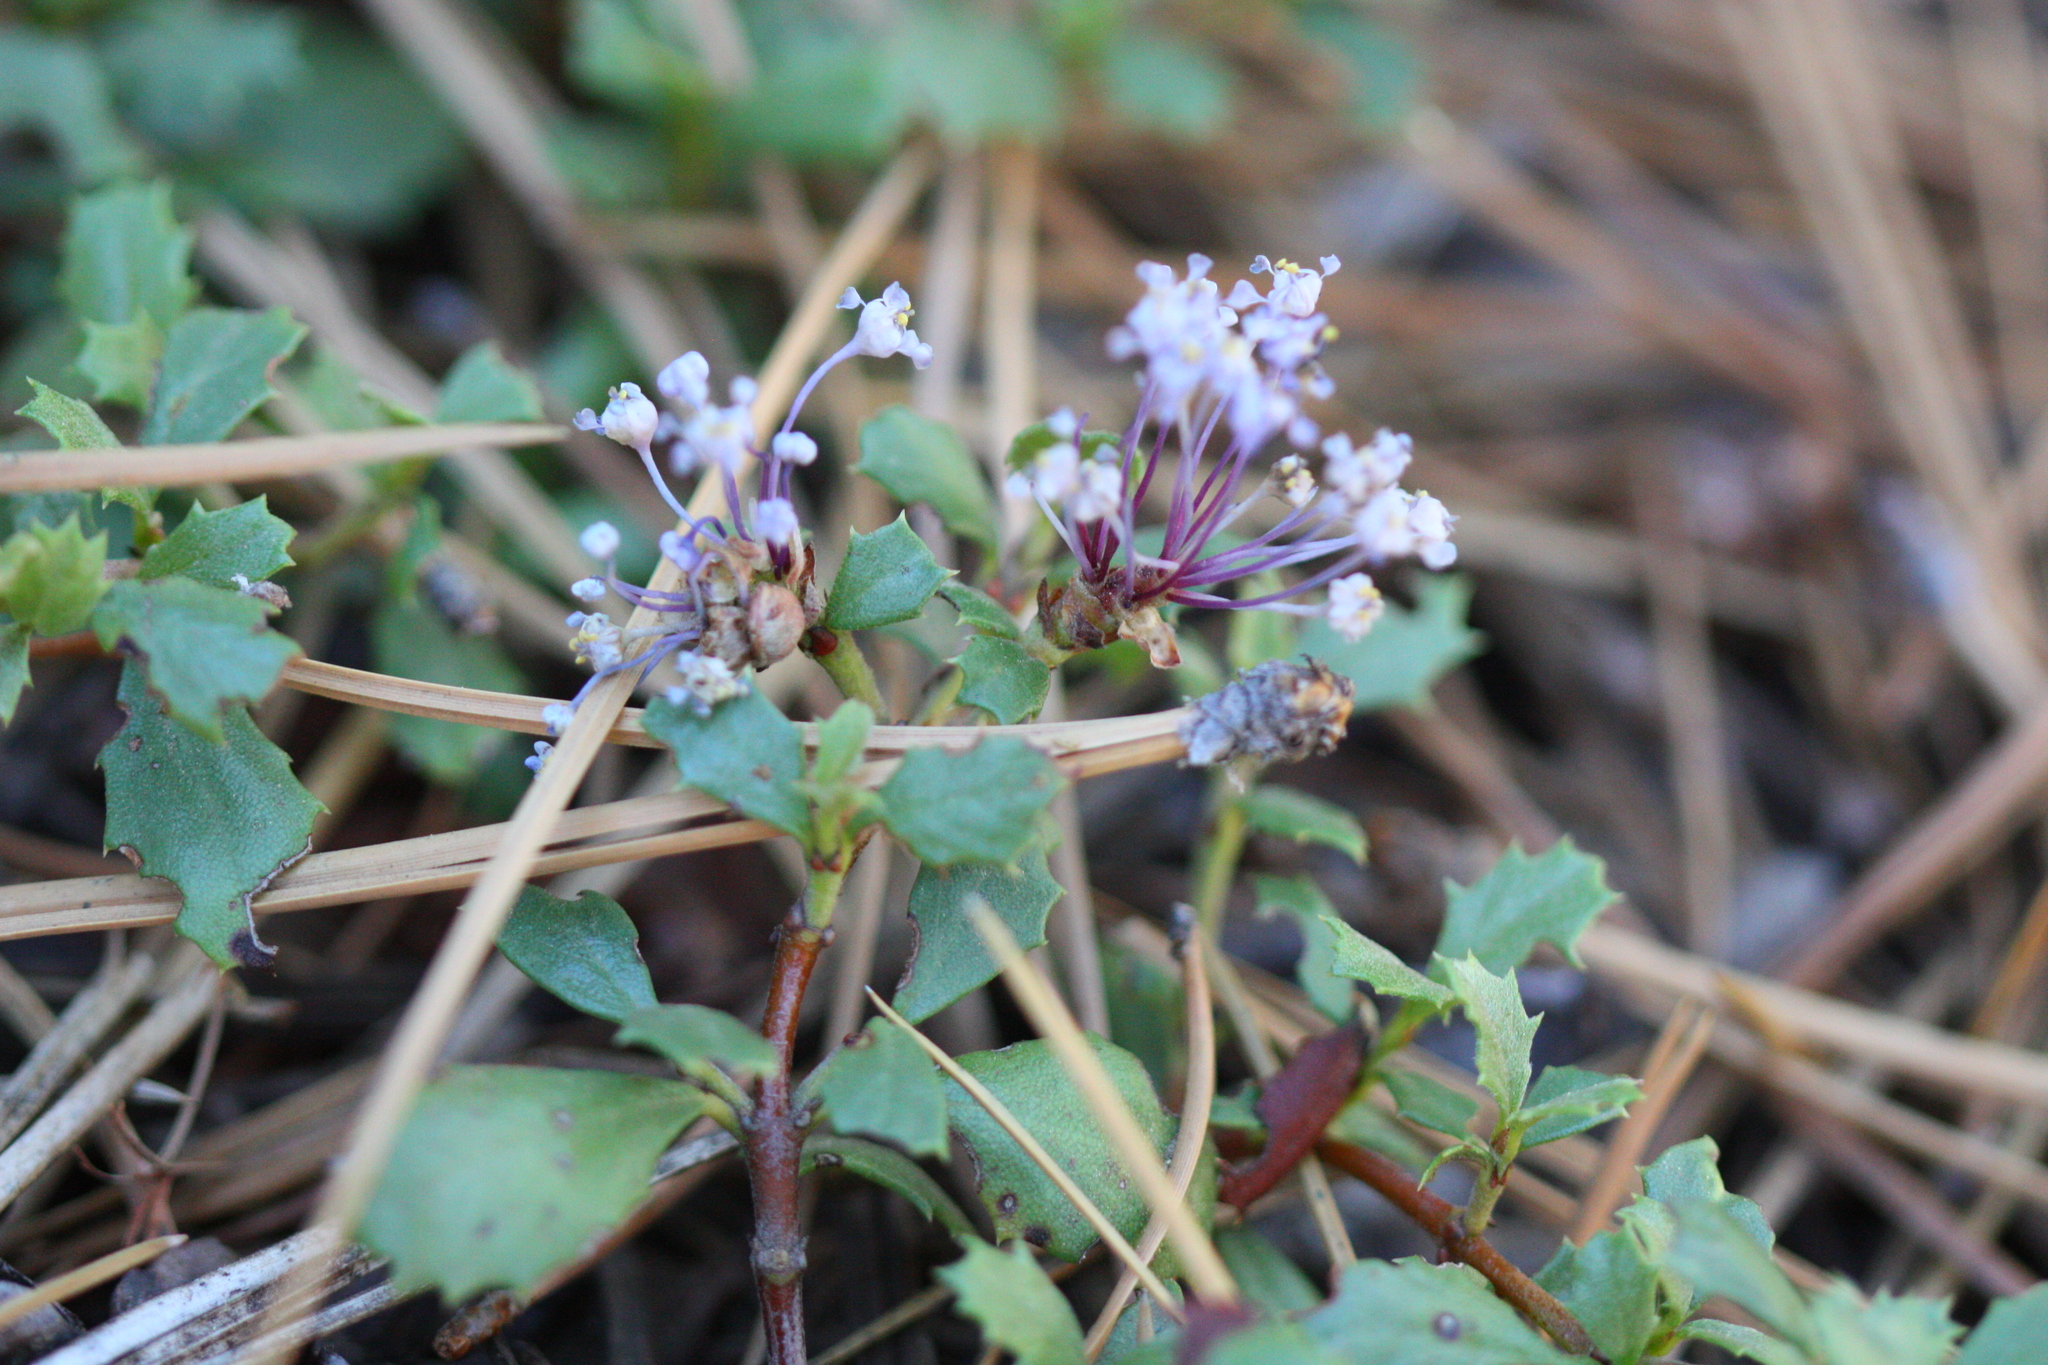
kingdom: Plantae
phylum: Tracheophyta
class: Magnoliopsida
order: Rosales
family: Rhamnaceae
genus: Ceanothus
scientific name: Ceanothus prostratus
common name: Mahala-mat
